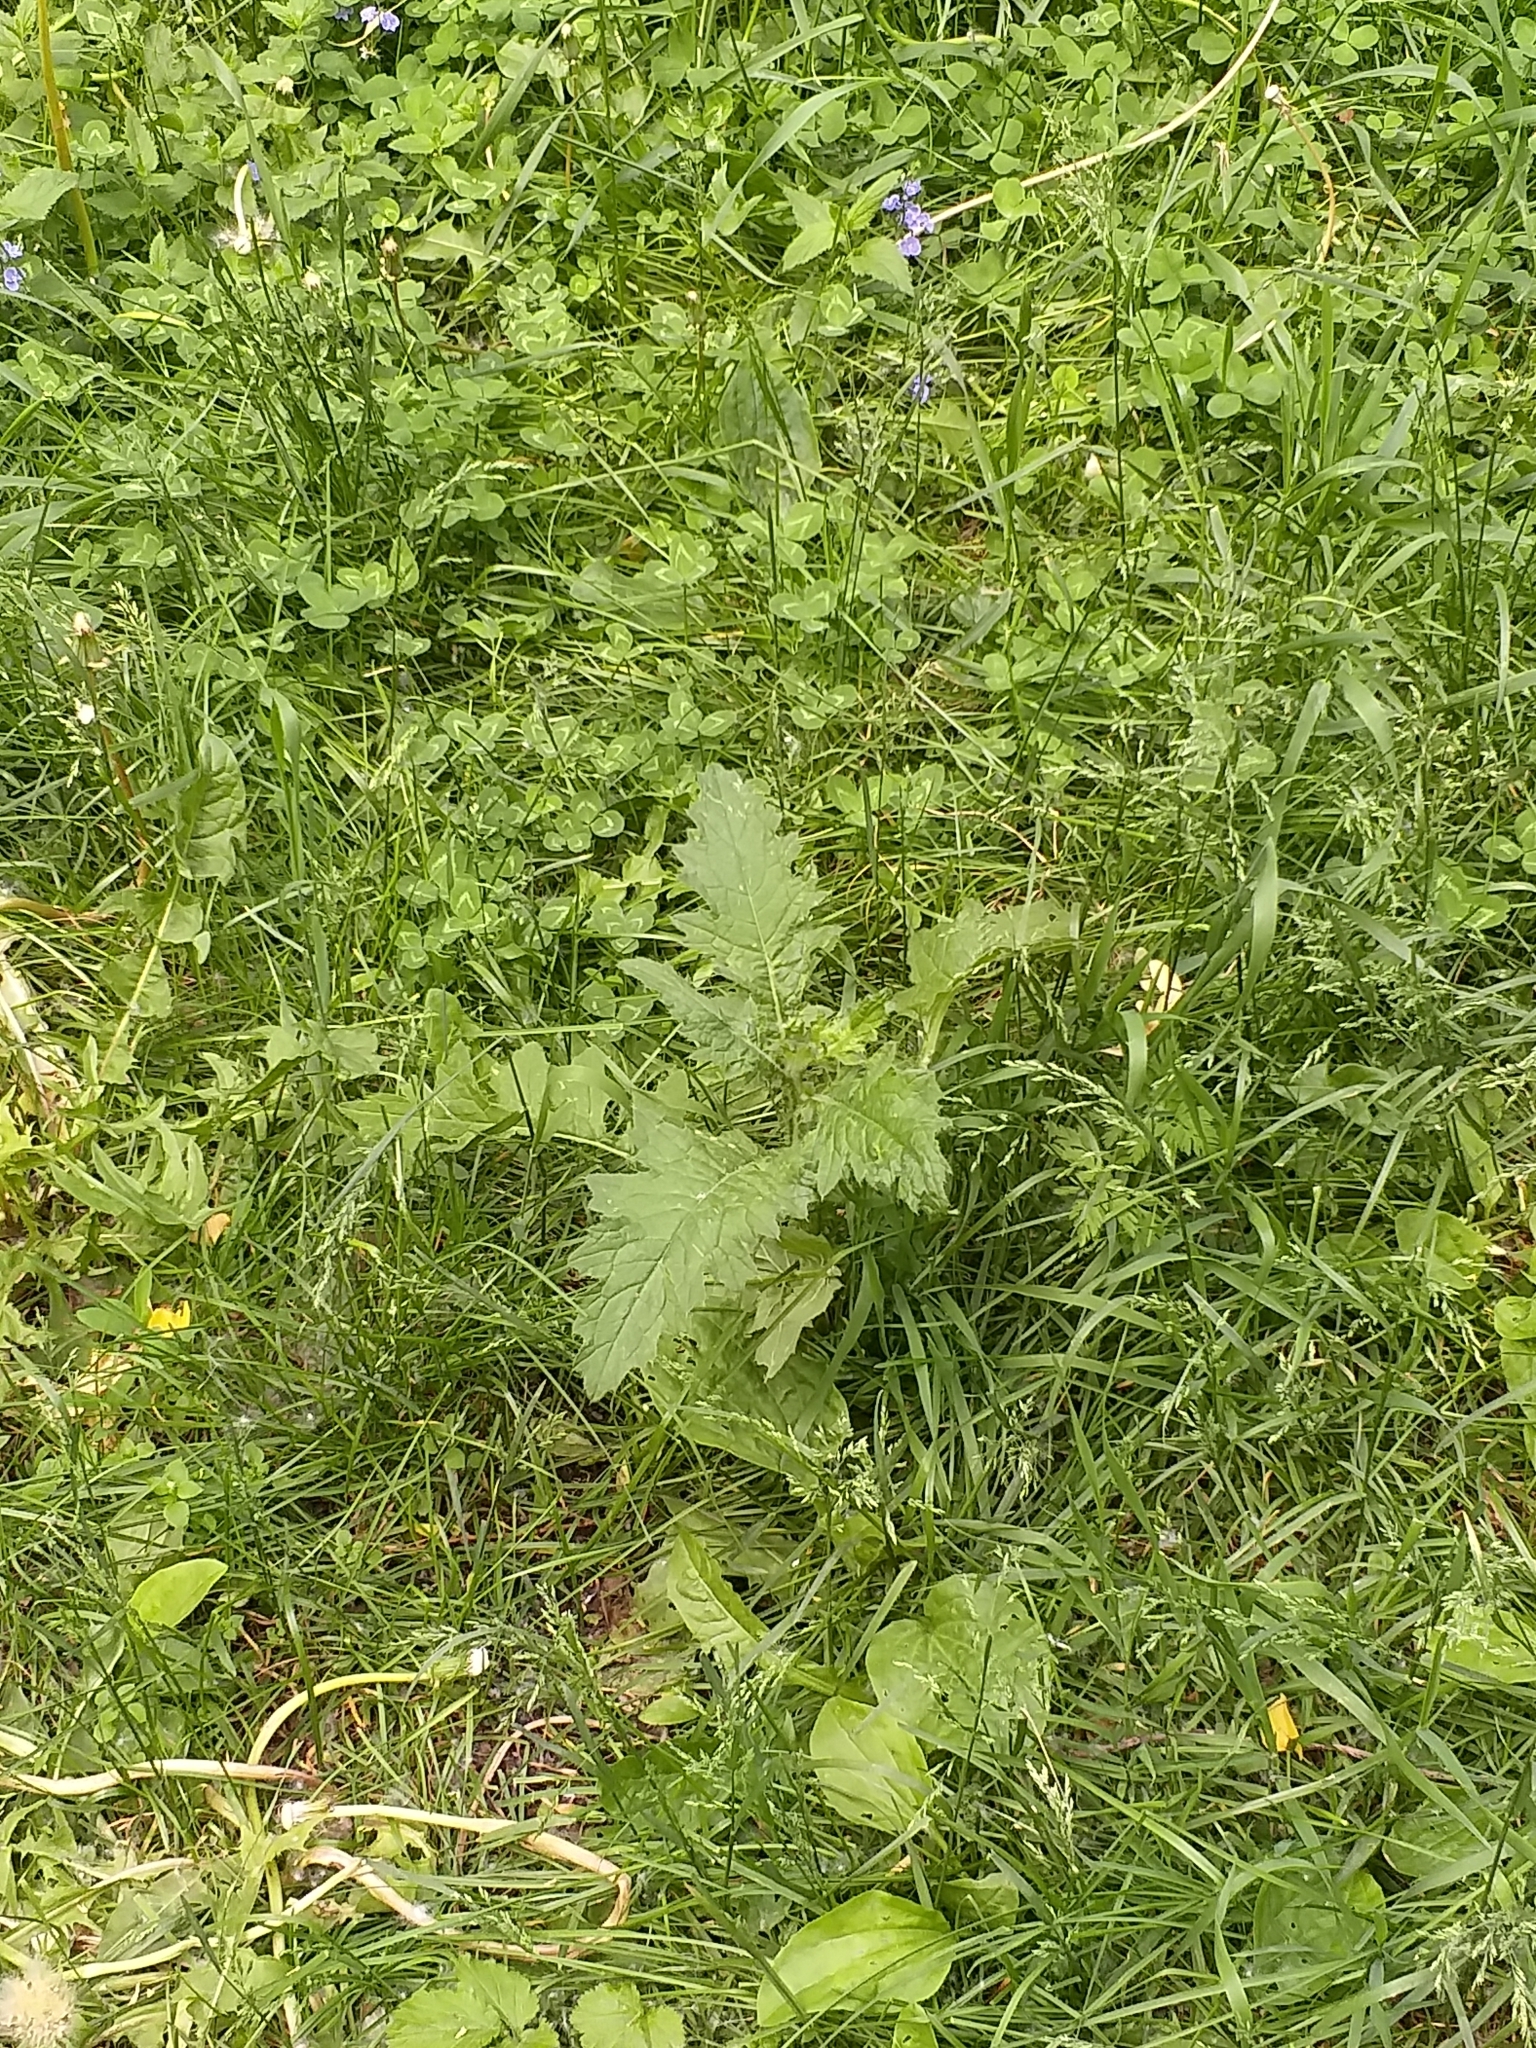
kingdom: Plantae
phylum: Tracheophyta
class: Magnoliopsida
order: Asterales
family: Asteraceae
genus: Carduus
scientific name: Carduus crispus
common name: Welted thistle
